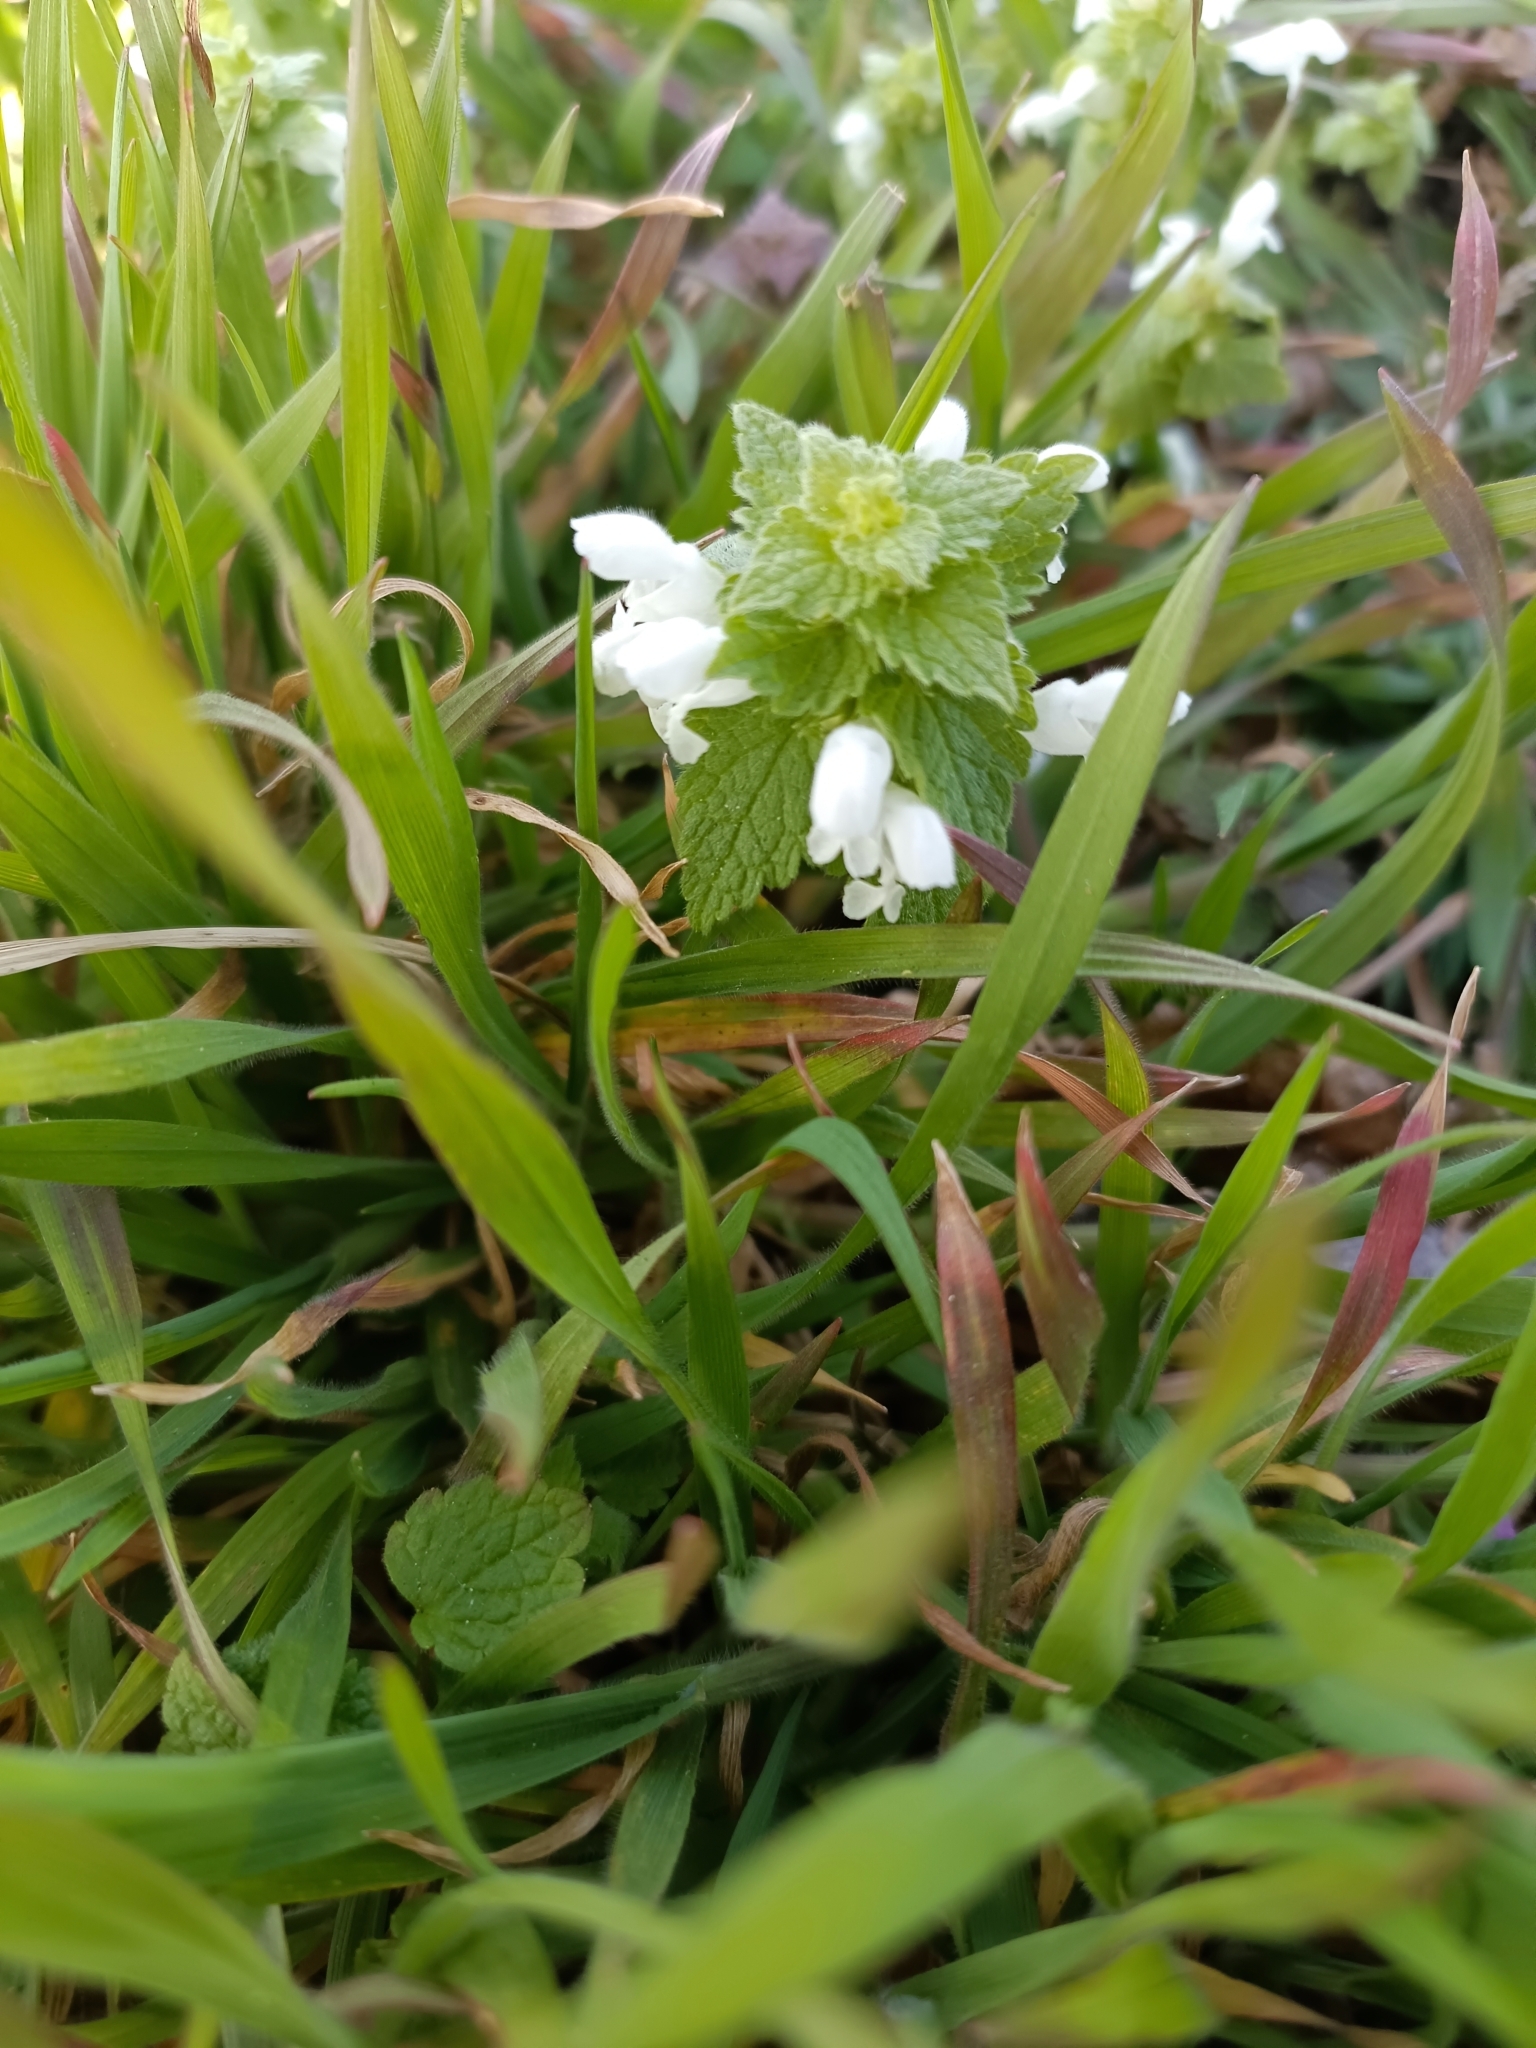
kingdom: Plantae
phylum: Tracheophyta
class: Magnoliopsida
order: Lamiales
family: Lamiaceae
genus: Lamium
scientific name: Lamium purpureum
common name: Red dead-nettle
